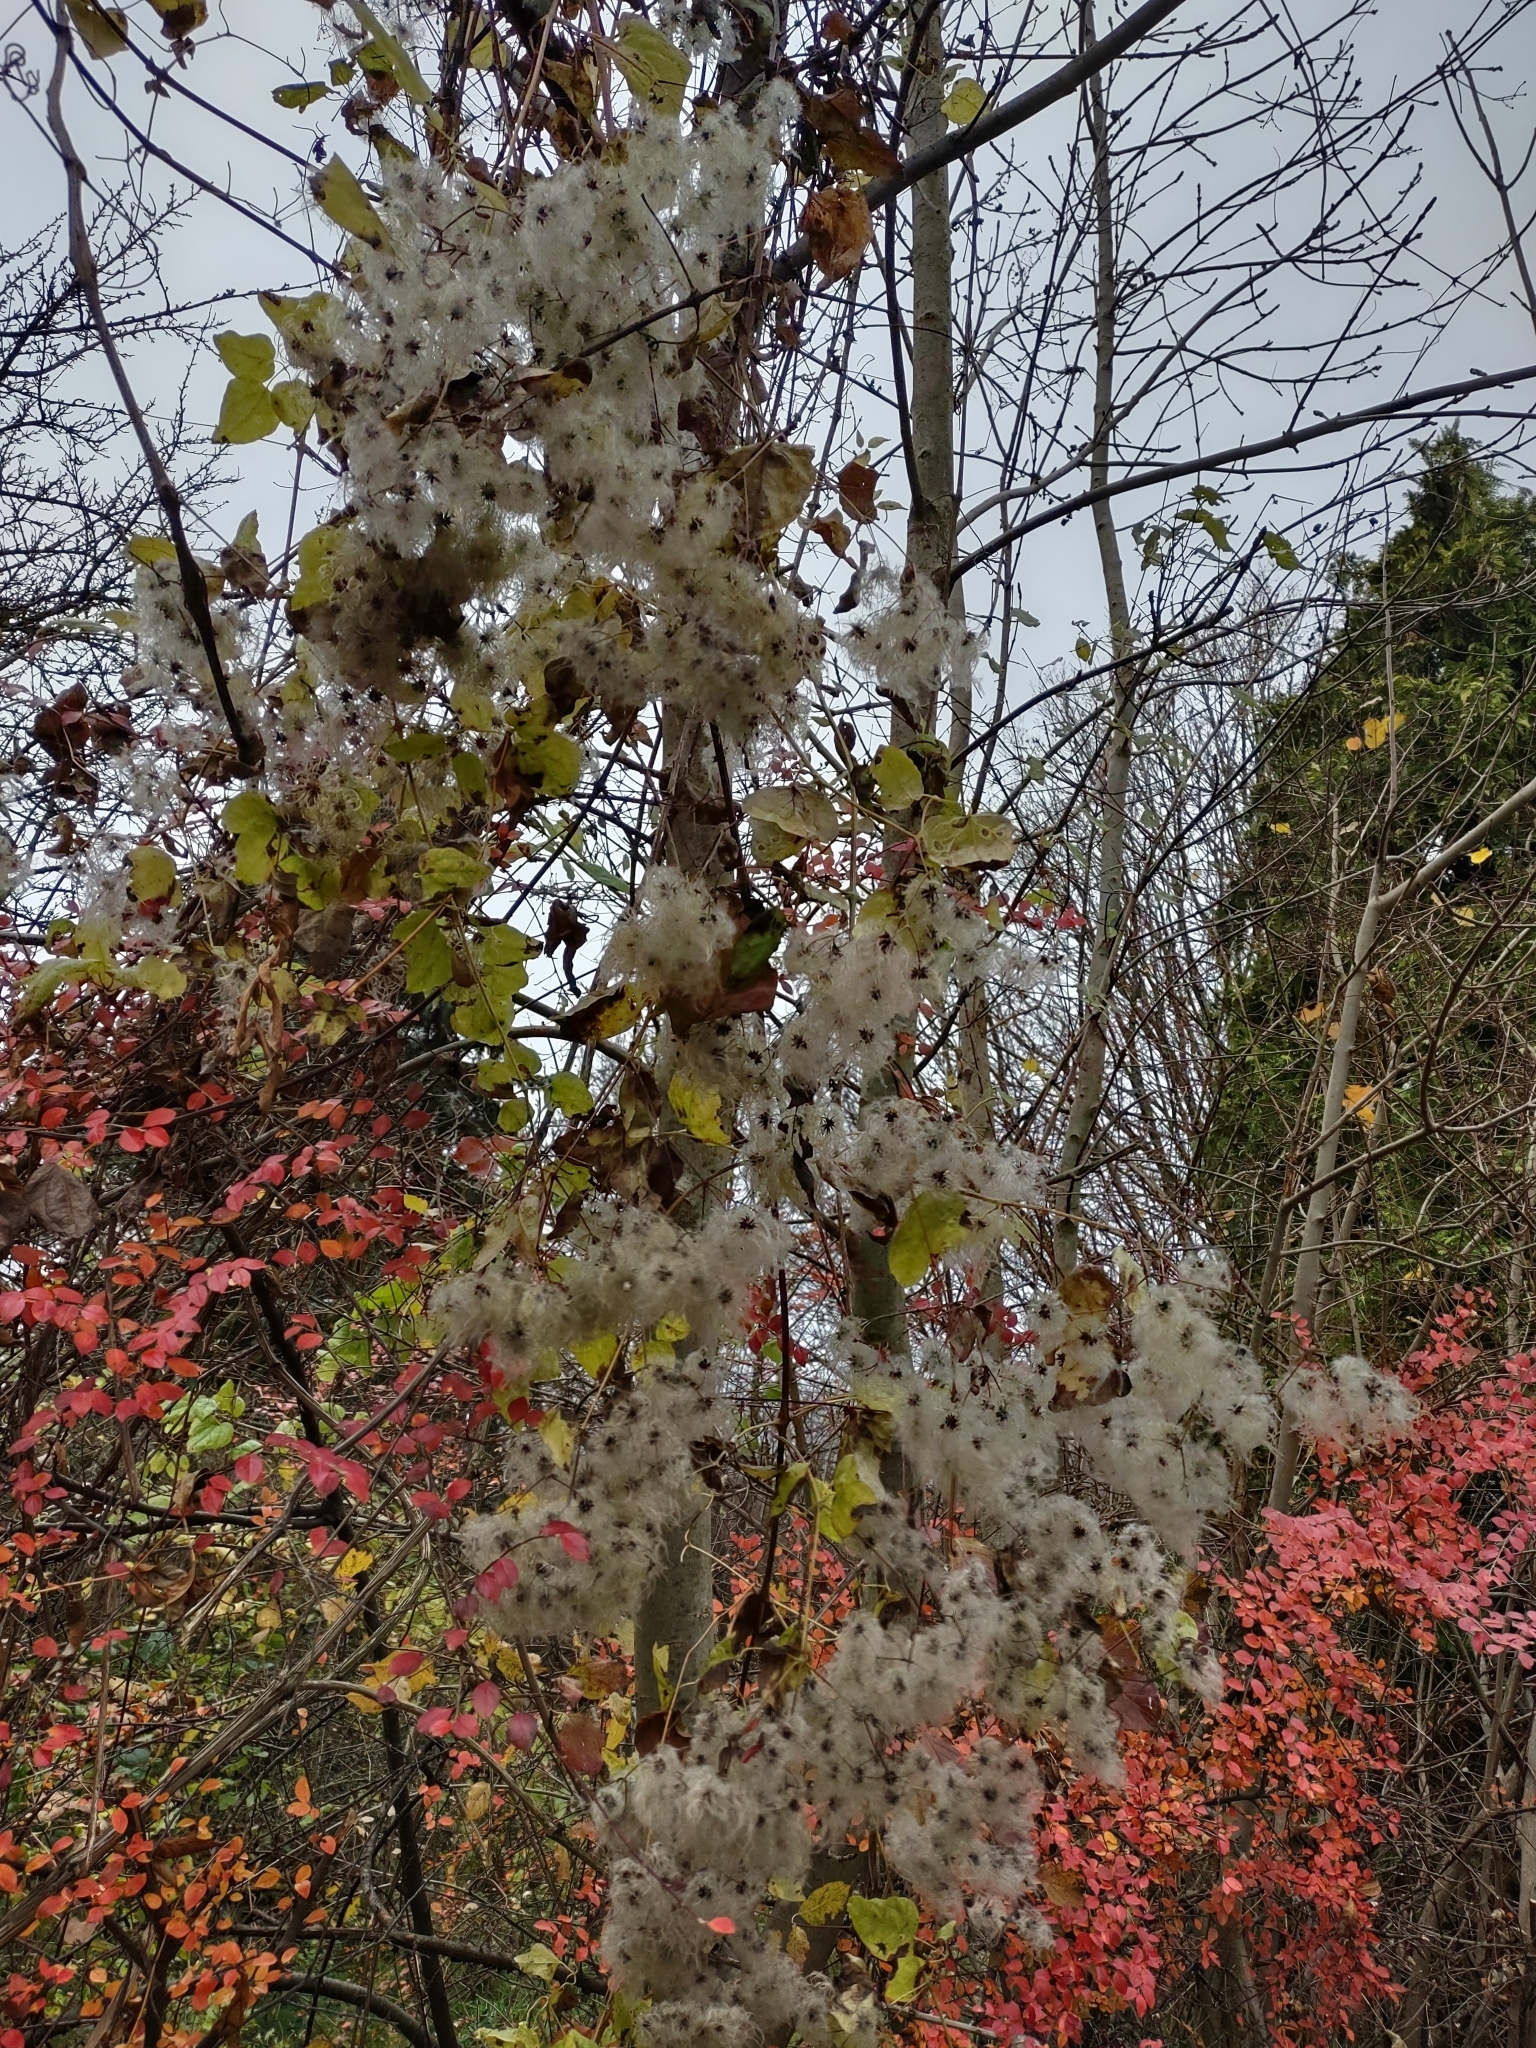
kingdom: Plantae
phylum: Tracheophyta
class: Magnoliopsida
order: Ranunculales
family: Ranunculaceae
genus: Clematis
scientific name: Clematis vitalba
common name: Evergreen clematis
